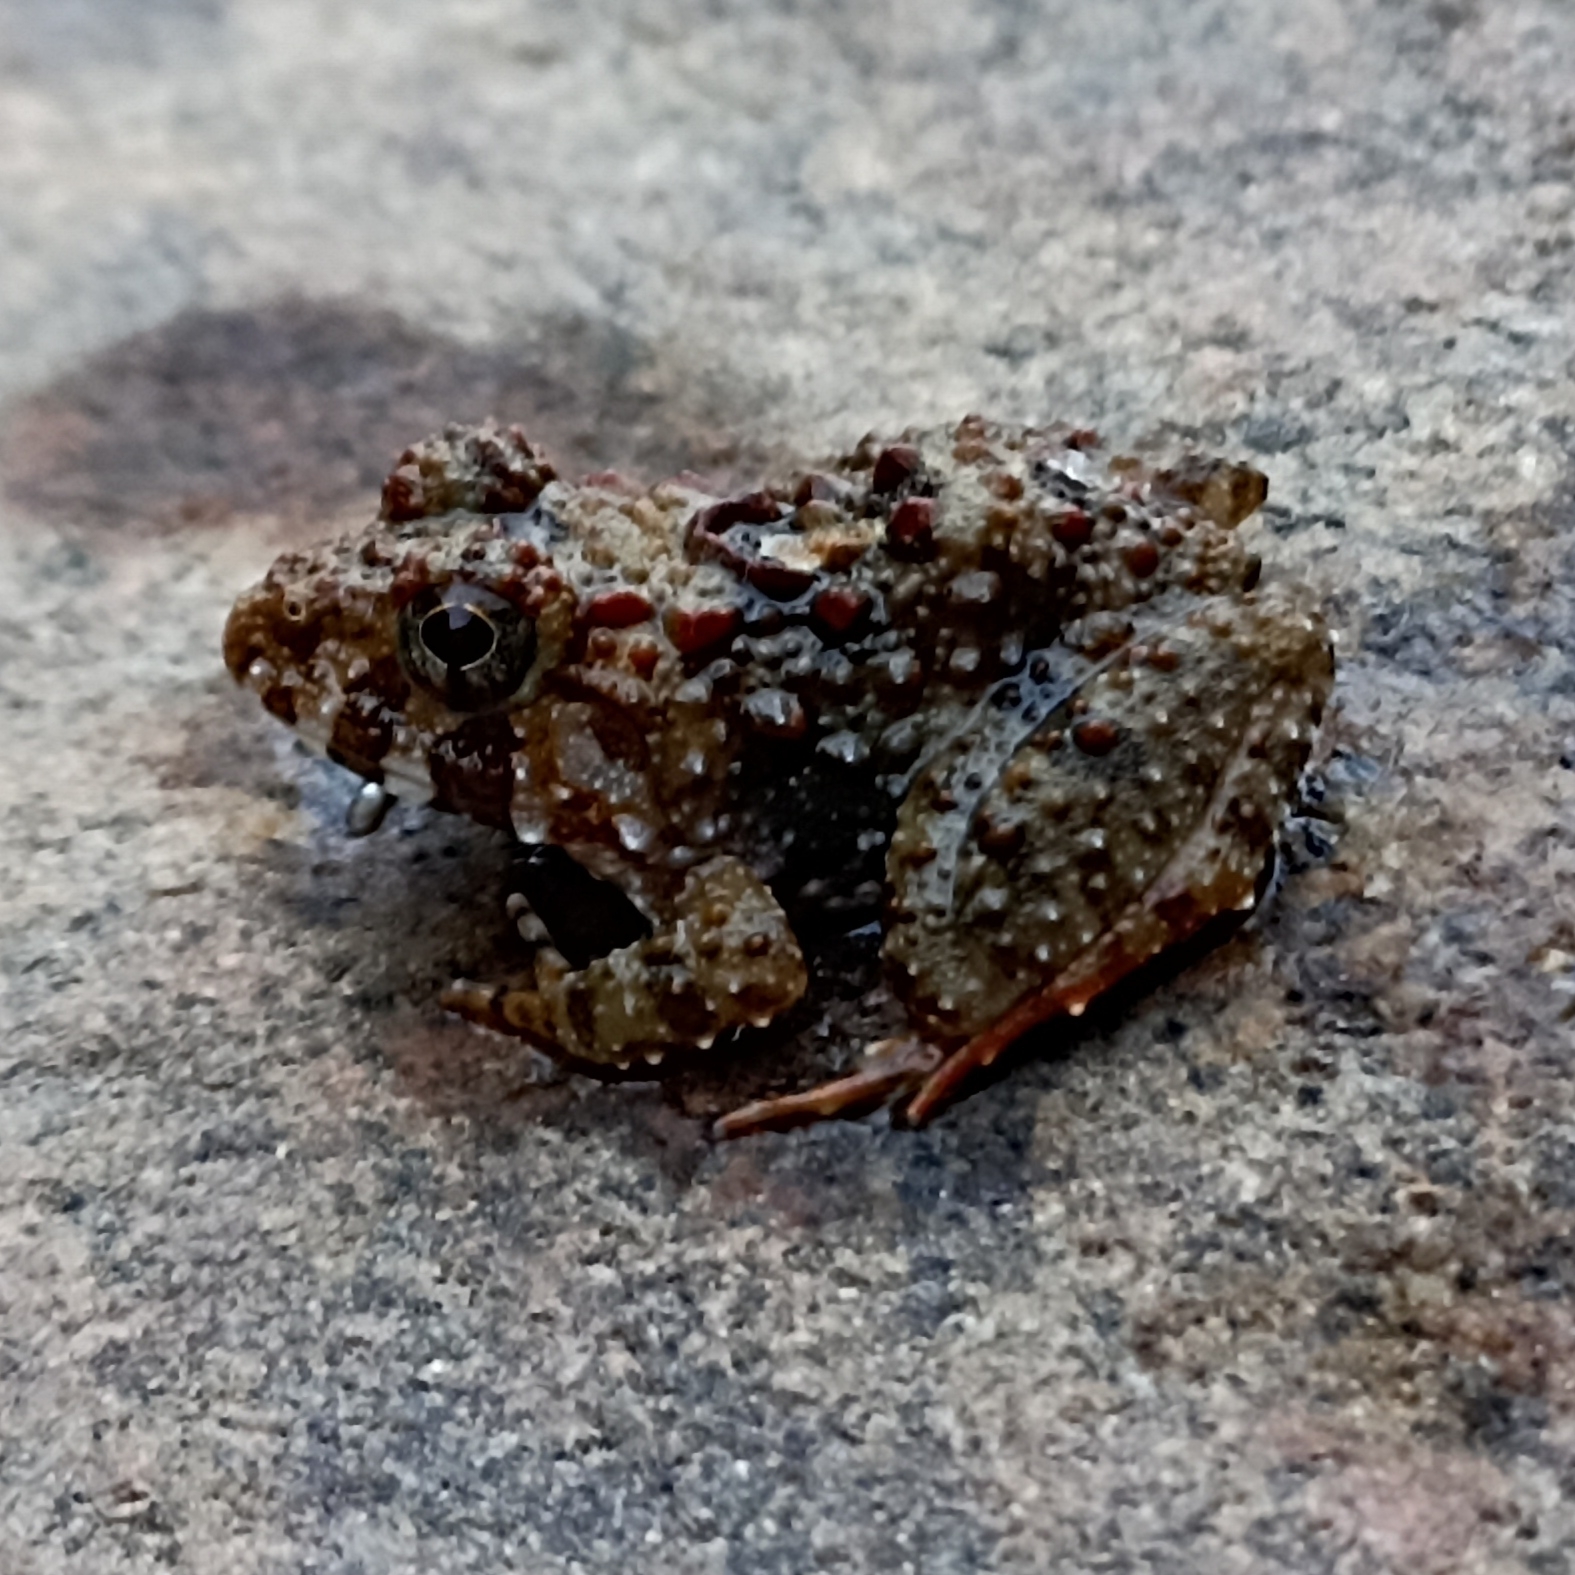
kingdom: Animalia
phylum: Chordata
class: Amphibia
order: Anura
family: Dicroglossidae
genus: Minervarya
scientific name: Minervarya keralensis
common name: Dubois' hill frog
